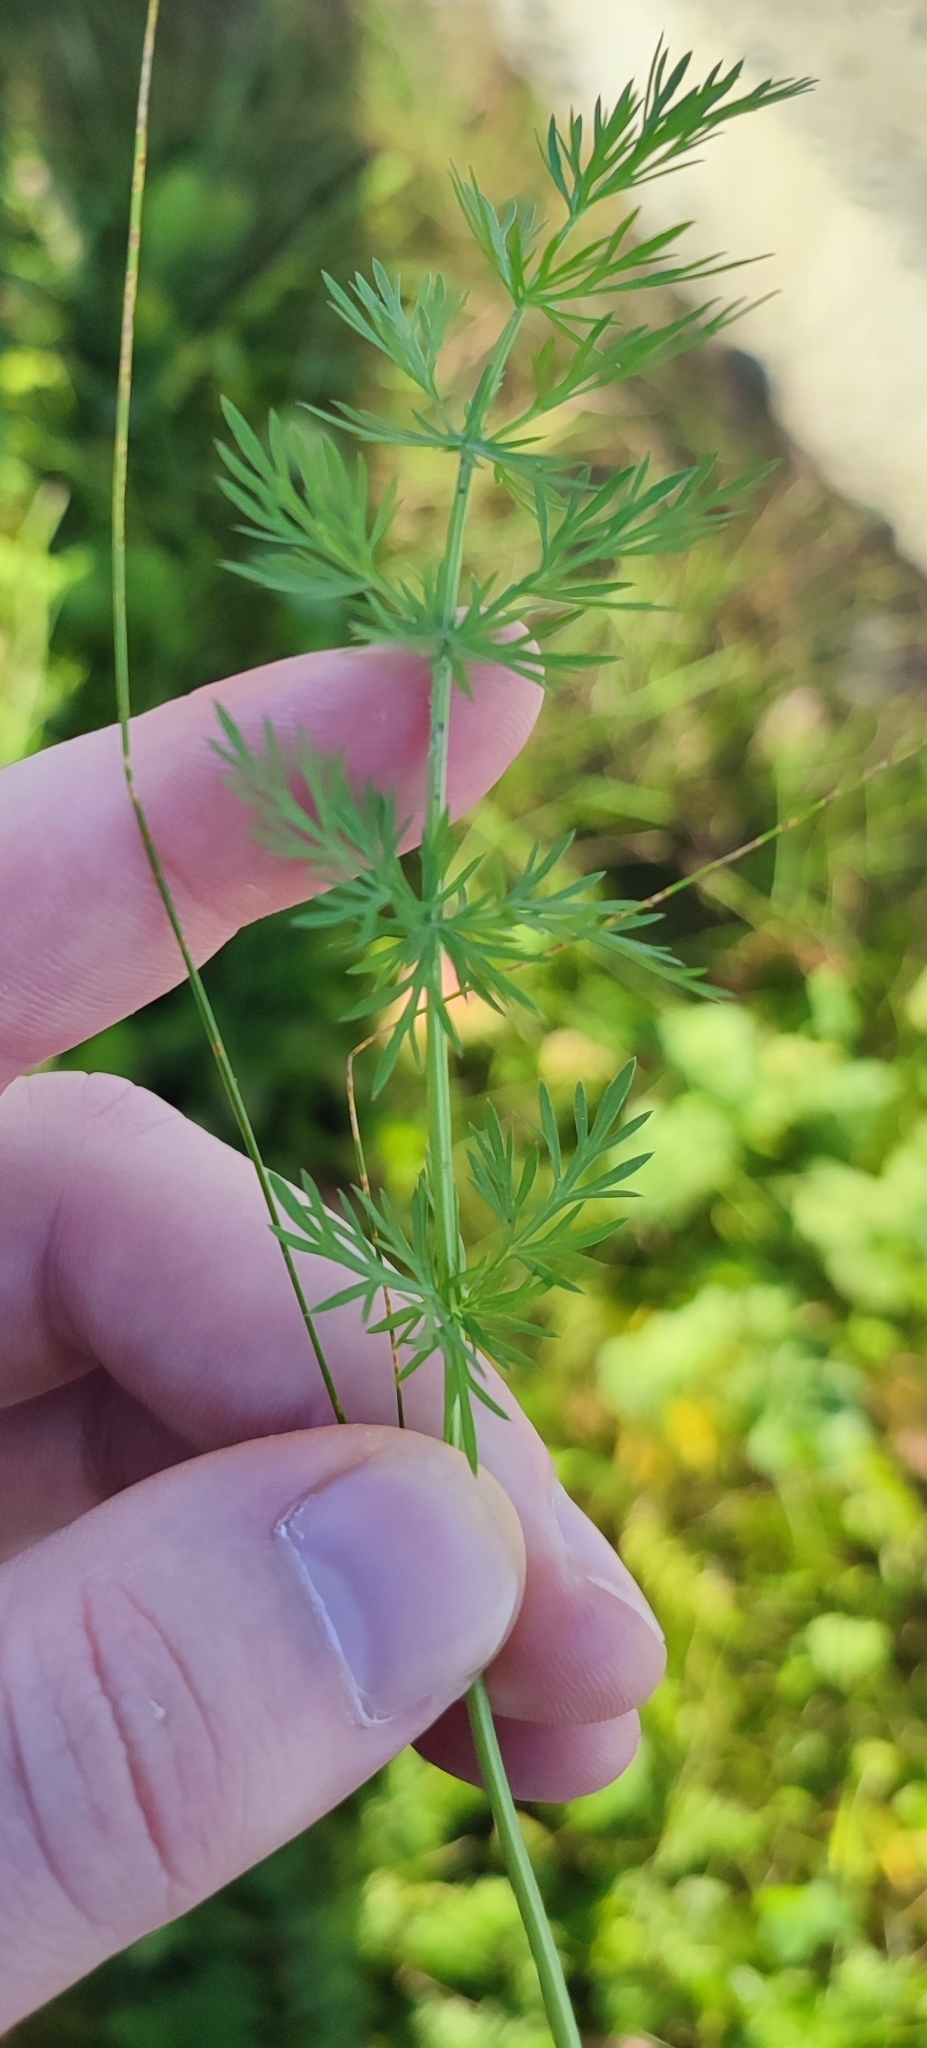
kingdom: Plantae
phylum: Tracheophyta
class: Magnoliopsida
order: Apiales
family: Apiaceae
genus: Carum
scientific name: Carum carvi
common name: Caraway
